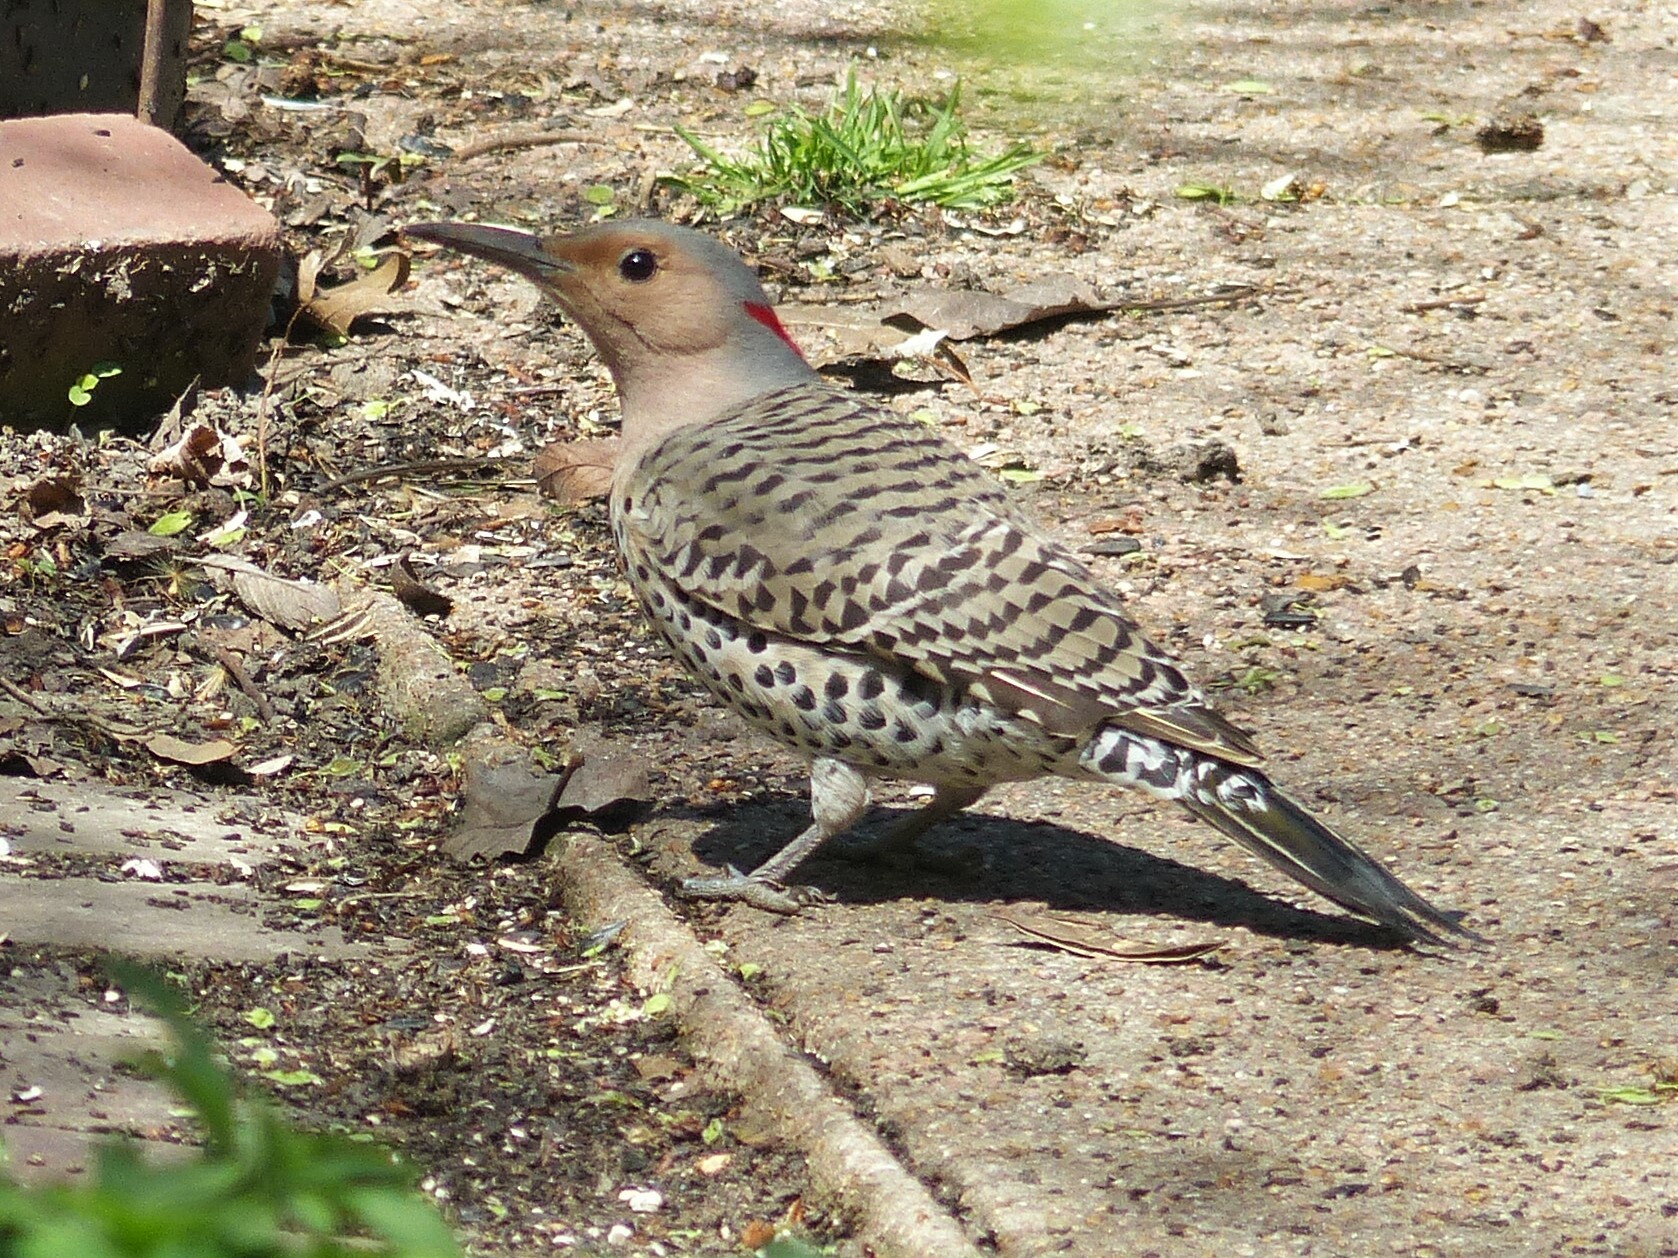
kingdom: Animalia
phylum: Chordata
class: Aves
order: Piciformes
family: Picidae
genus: Colaptes
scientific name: Colaptes auratus
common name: Northern flicker
